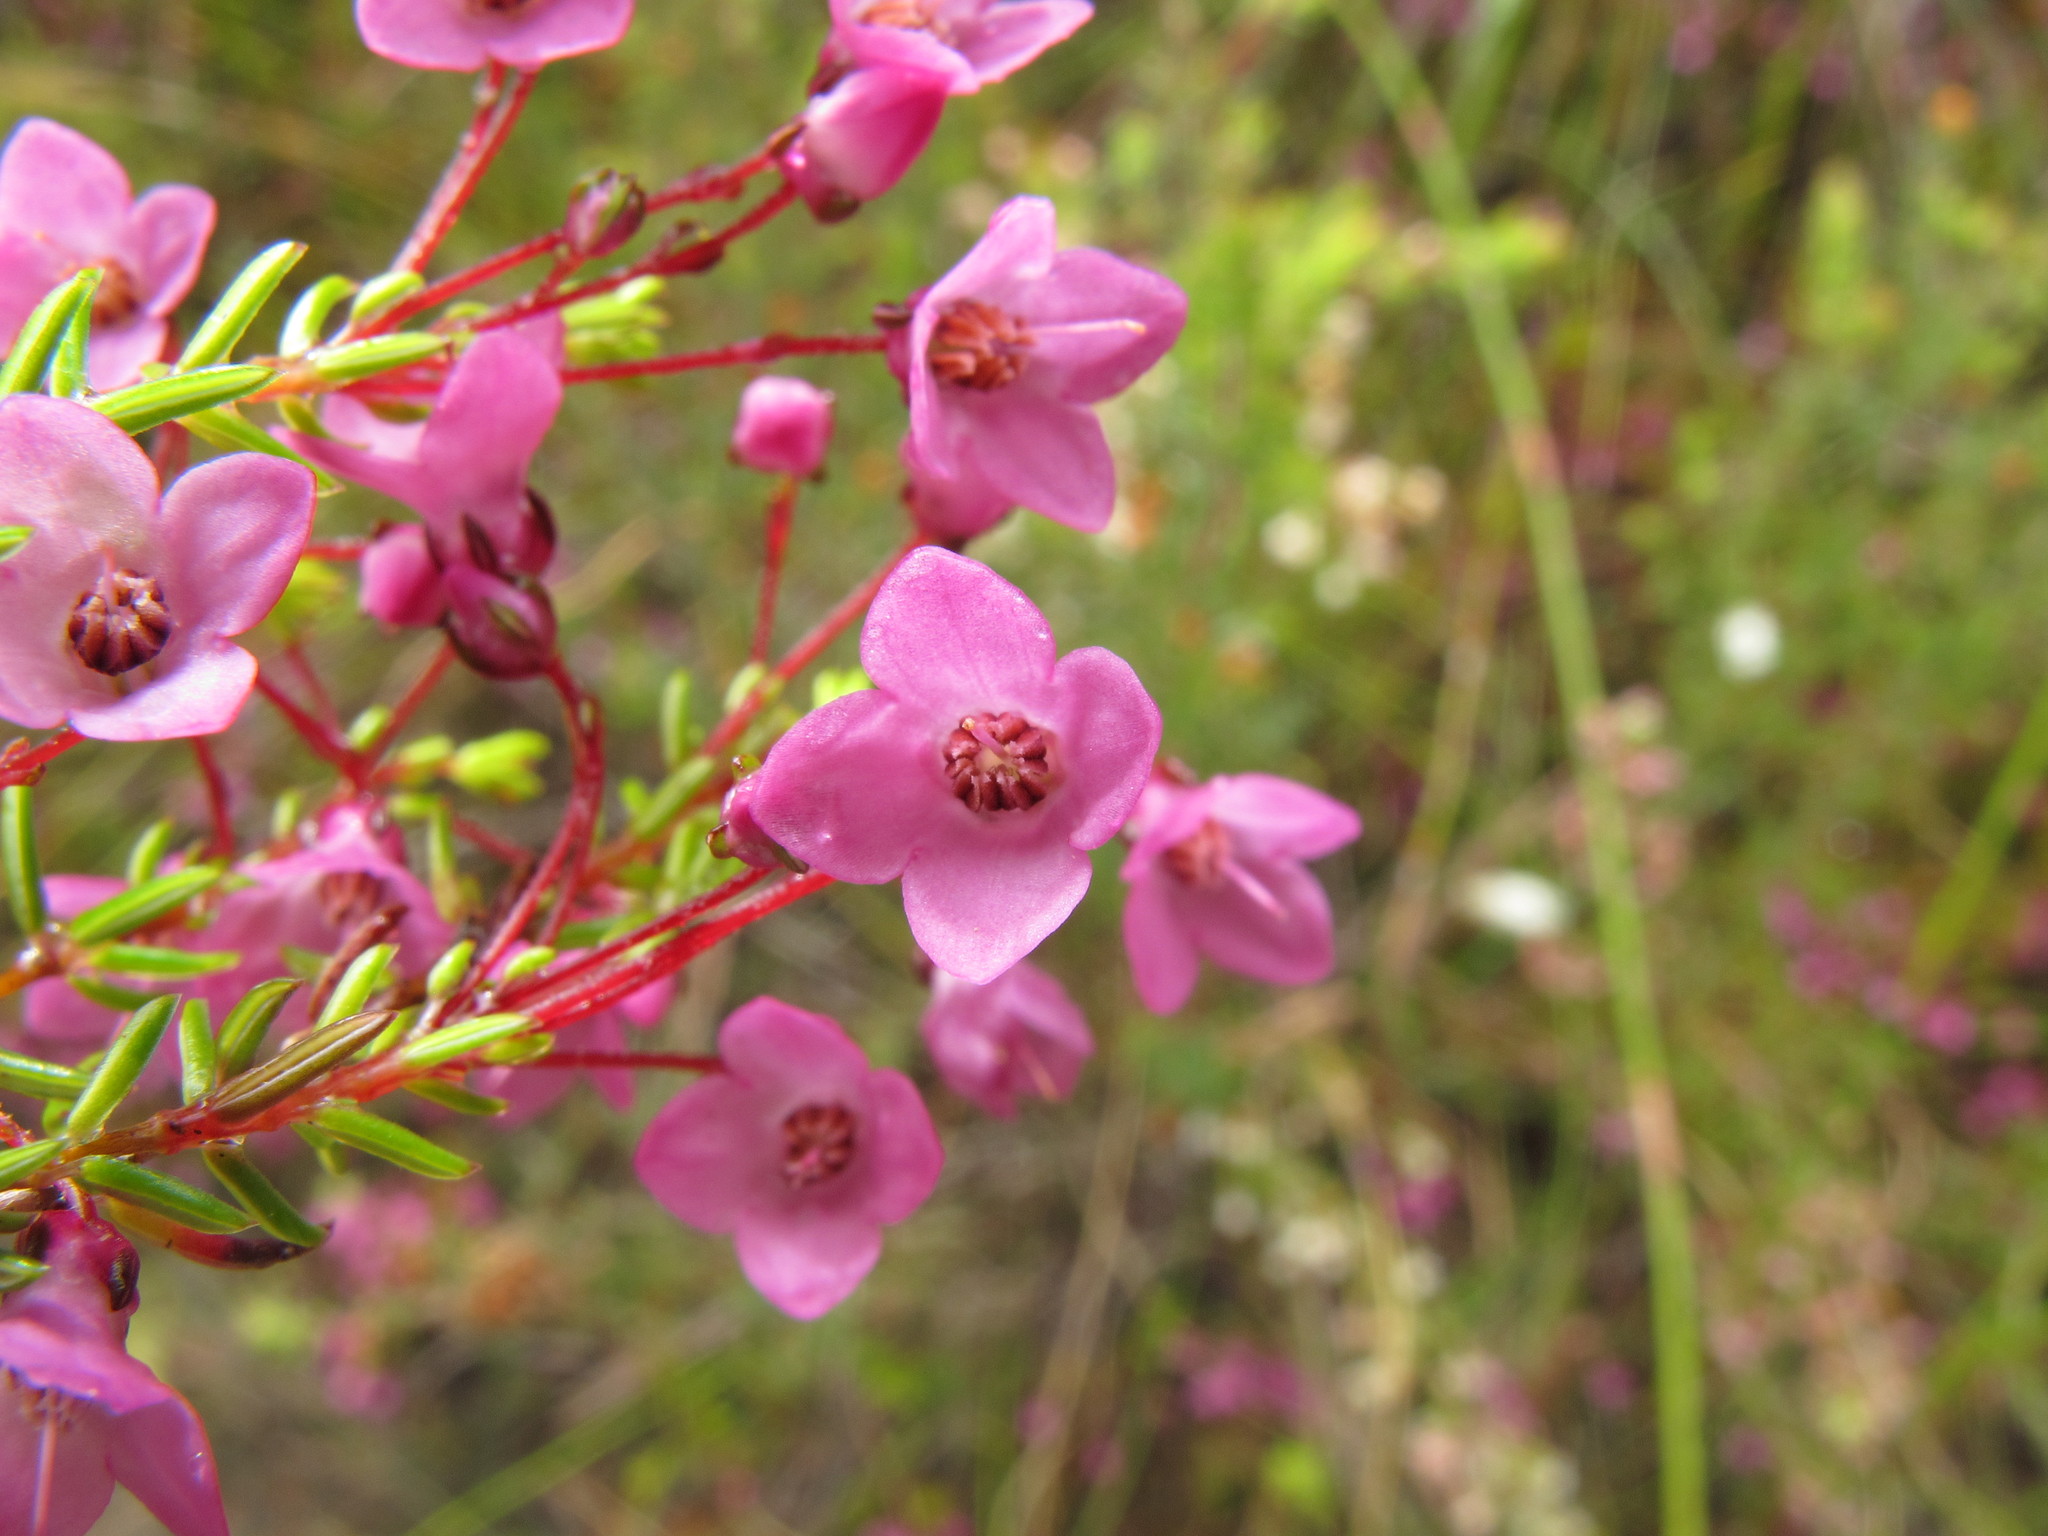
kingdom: Plantae
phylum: Tracheophyta
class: Magnoliopsida
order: Ericales
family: Ericaceae
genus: Erica
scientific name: Erica tetrathecoides
